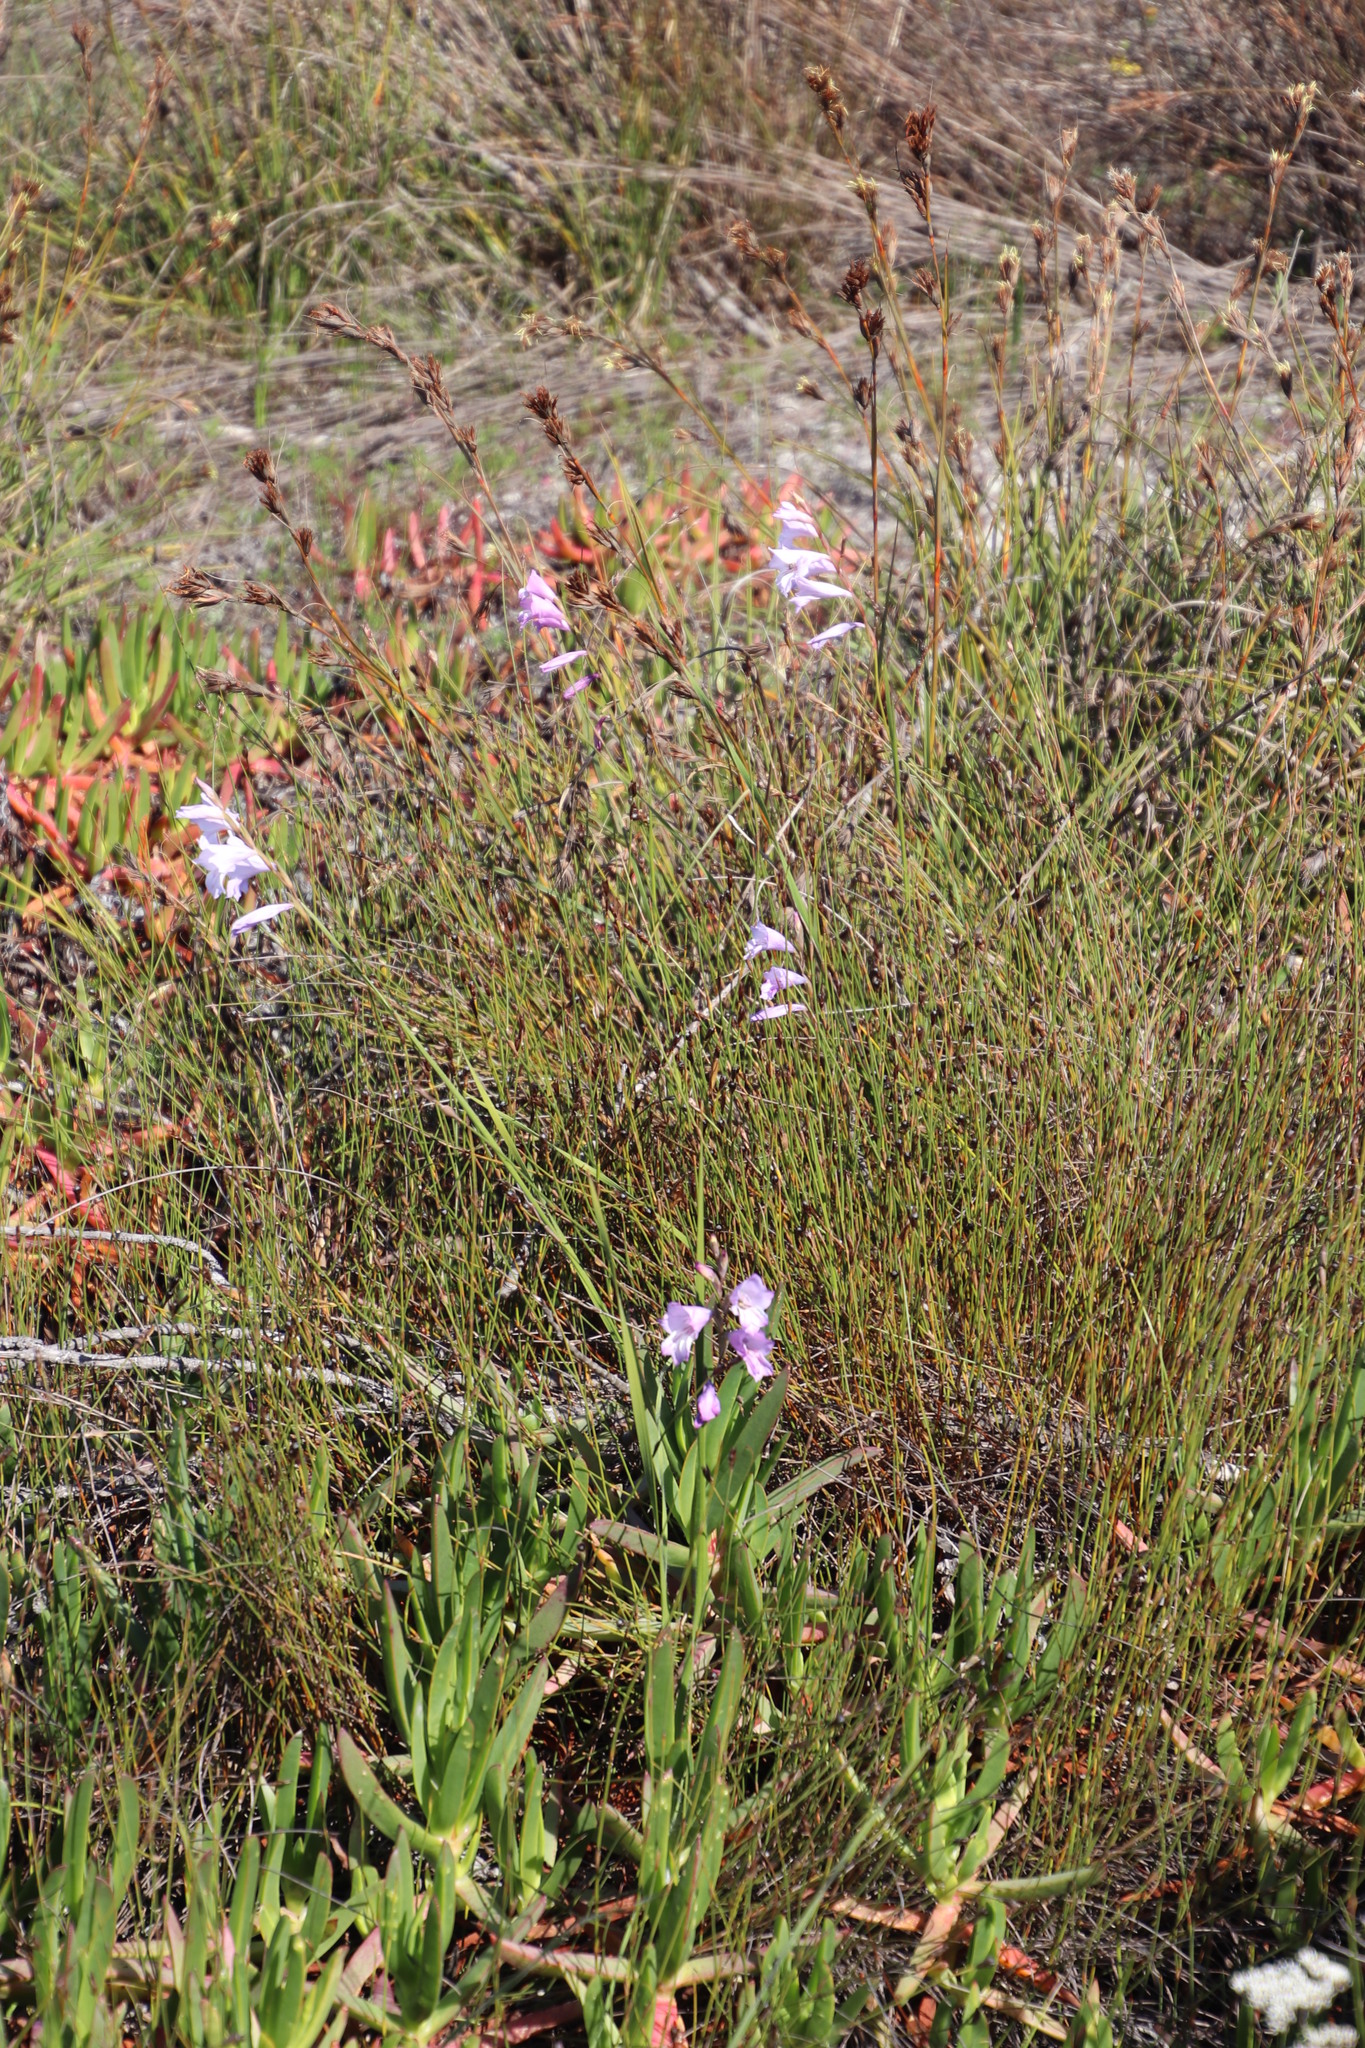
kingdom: Plantae
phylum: Tracheophyta
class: Liliopsida
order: Asparagales
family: Iridaceae
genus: Gladiolus
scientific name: Gladiolus hirsutus
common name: Small pink afrikaner
